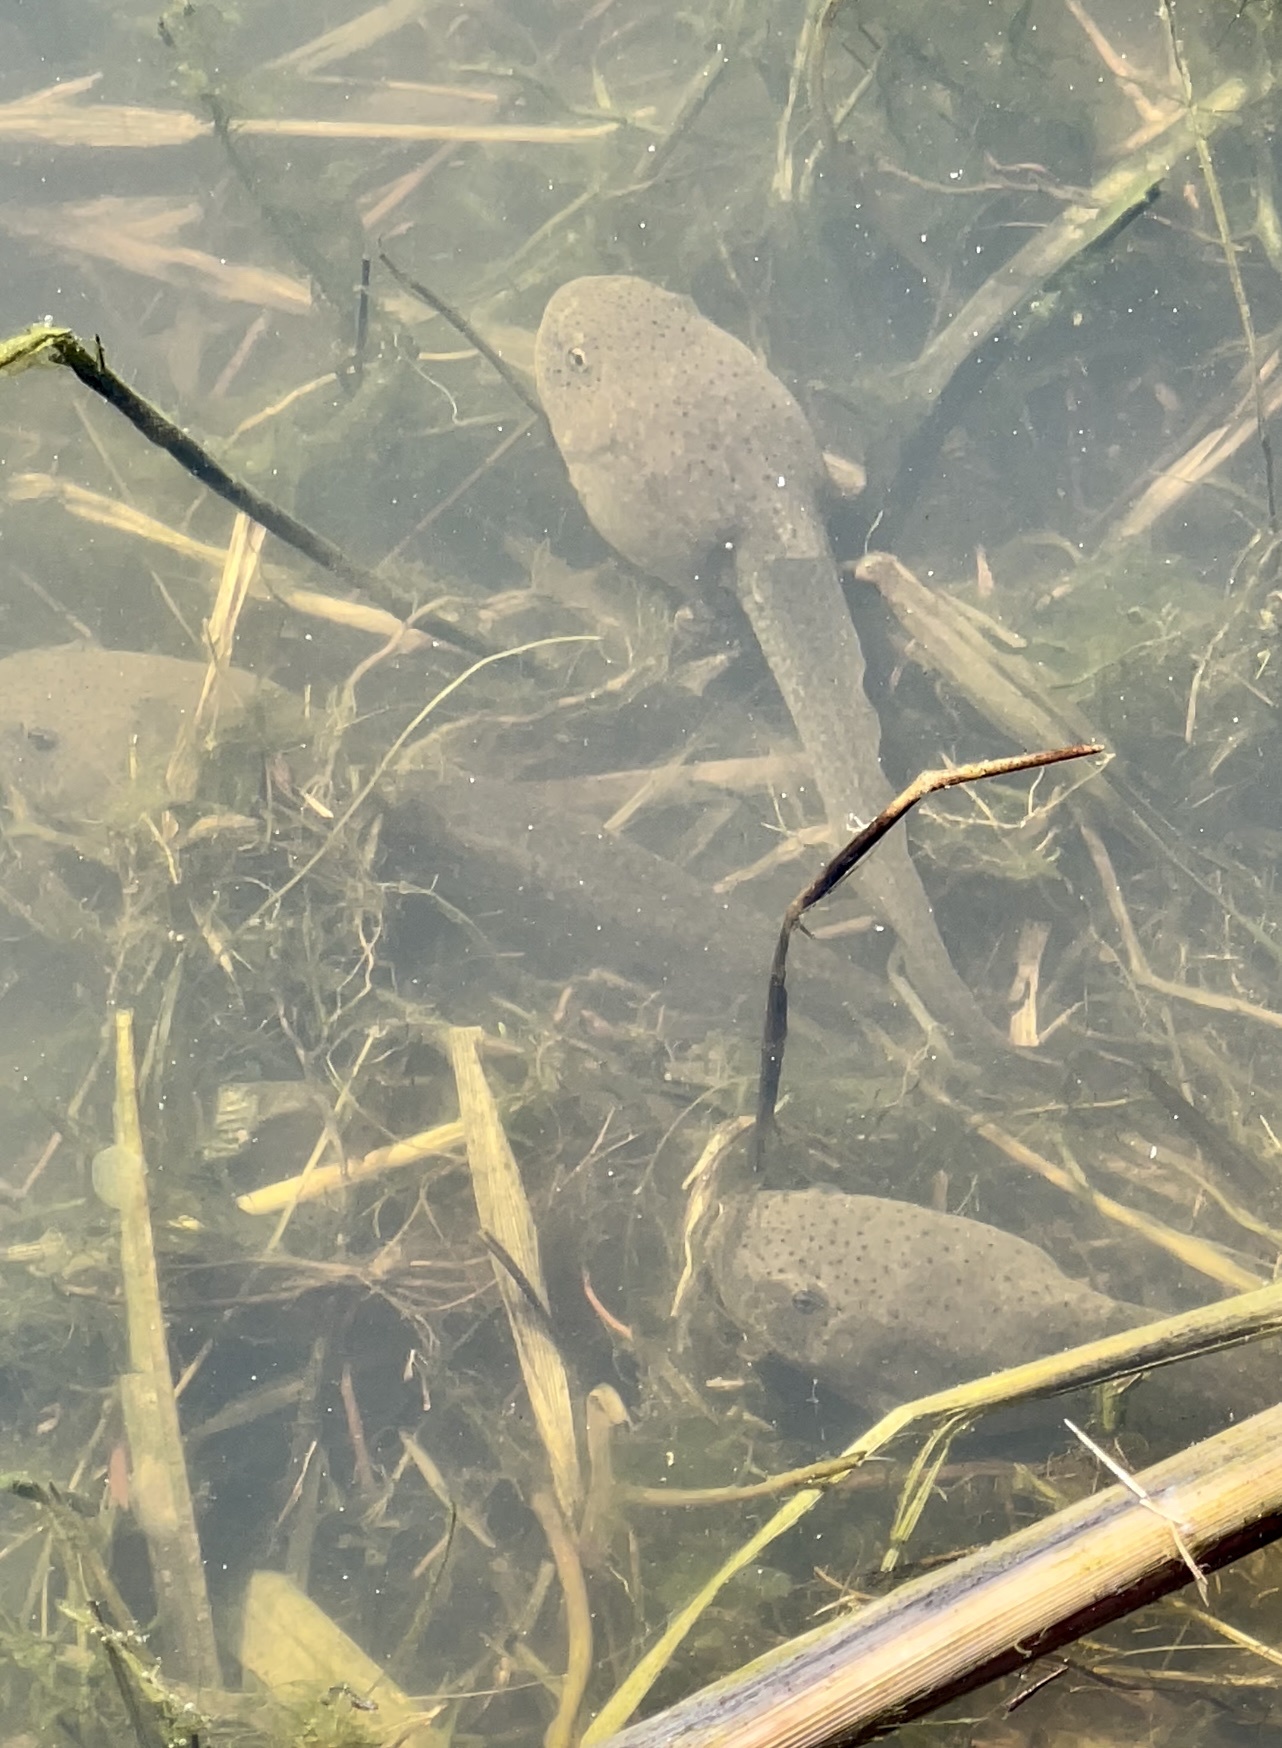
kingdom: Animalia
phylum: Chordata
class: Amphibia
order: Anura
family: Ranidae
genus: Lithobates
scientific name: Lithobates catesbeianus
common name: American bullfrog
